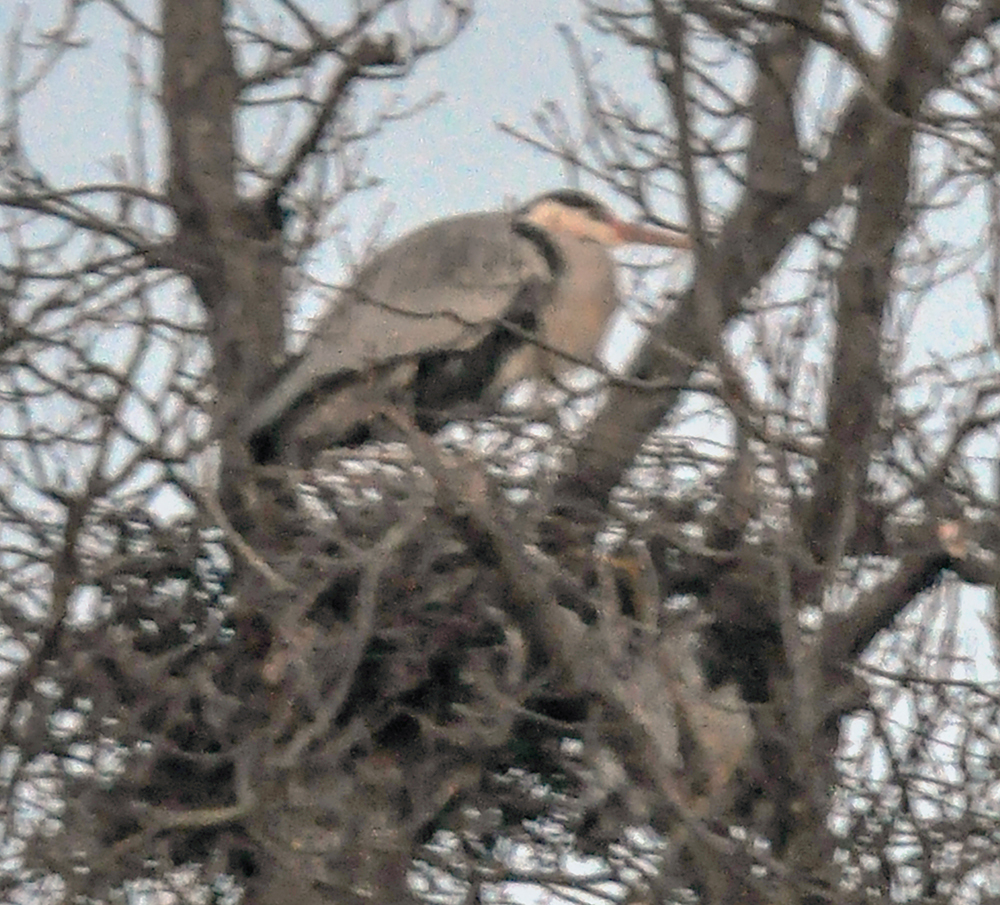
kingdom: Animalia
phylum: Chordata
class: Aves
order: Pelecaniformes
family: Ardeidae
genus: Ardea
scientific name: Ardea cinerea
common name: Grey heron
